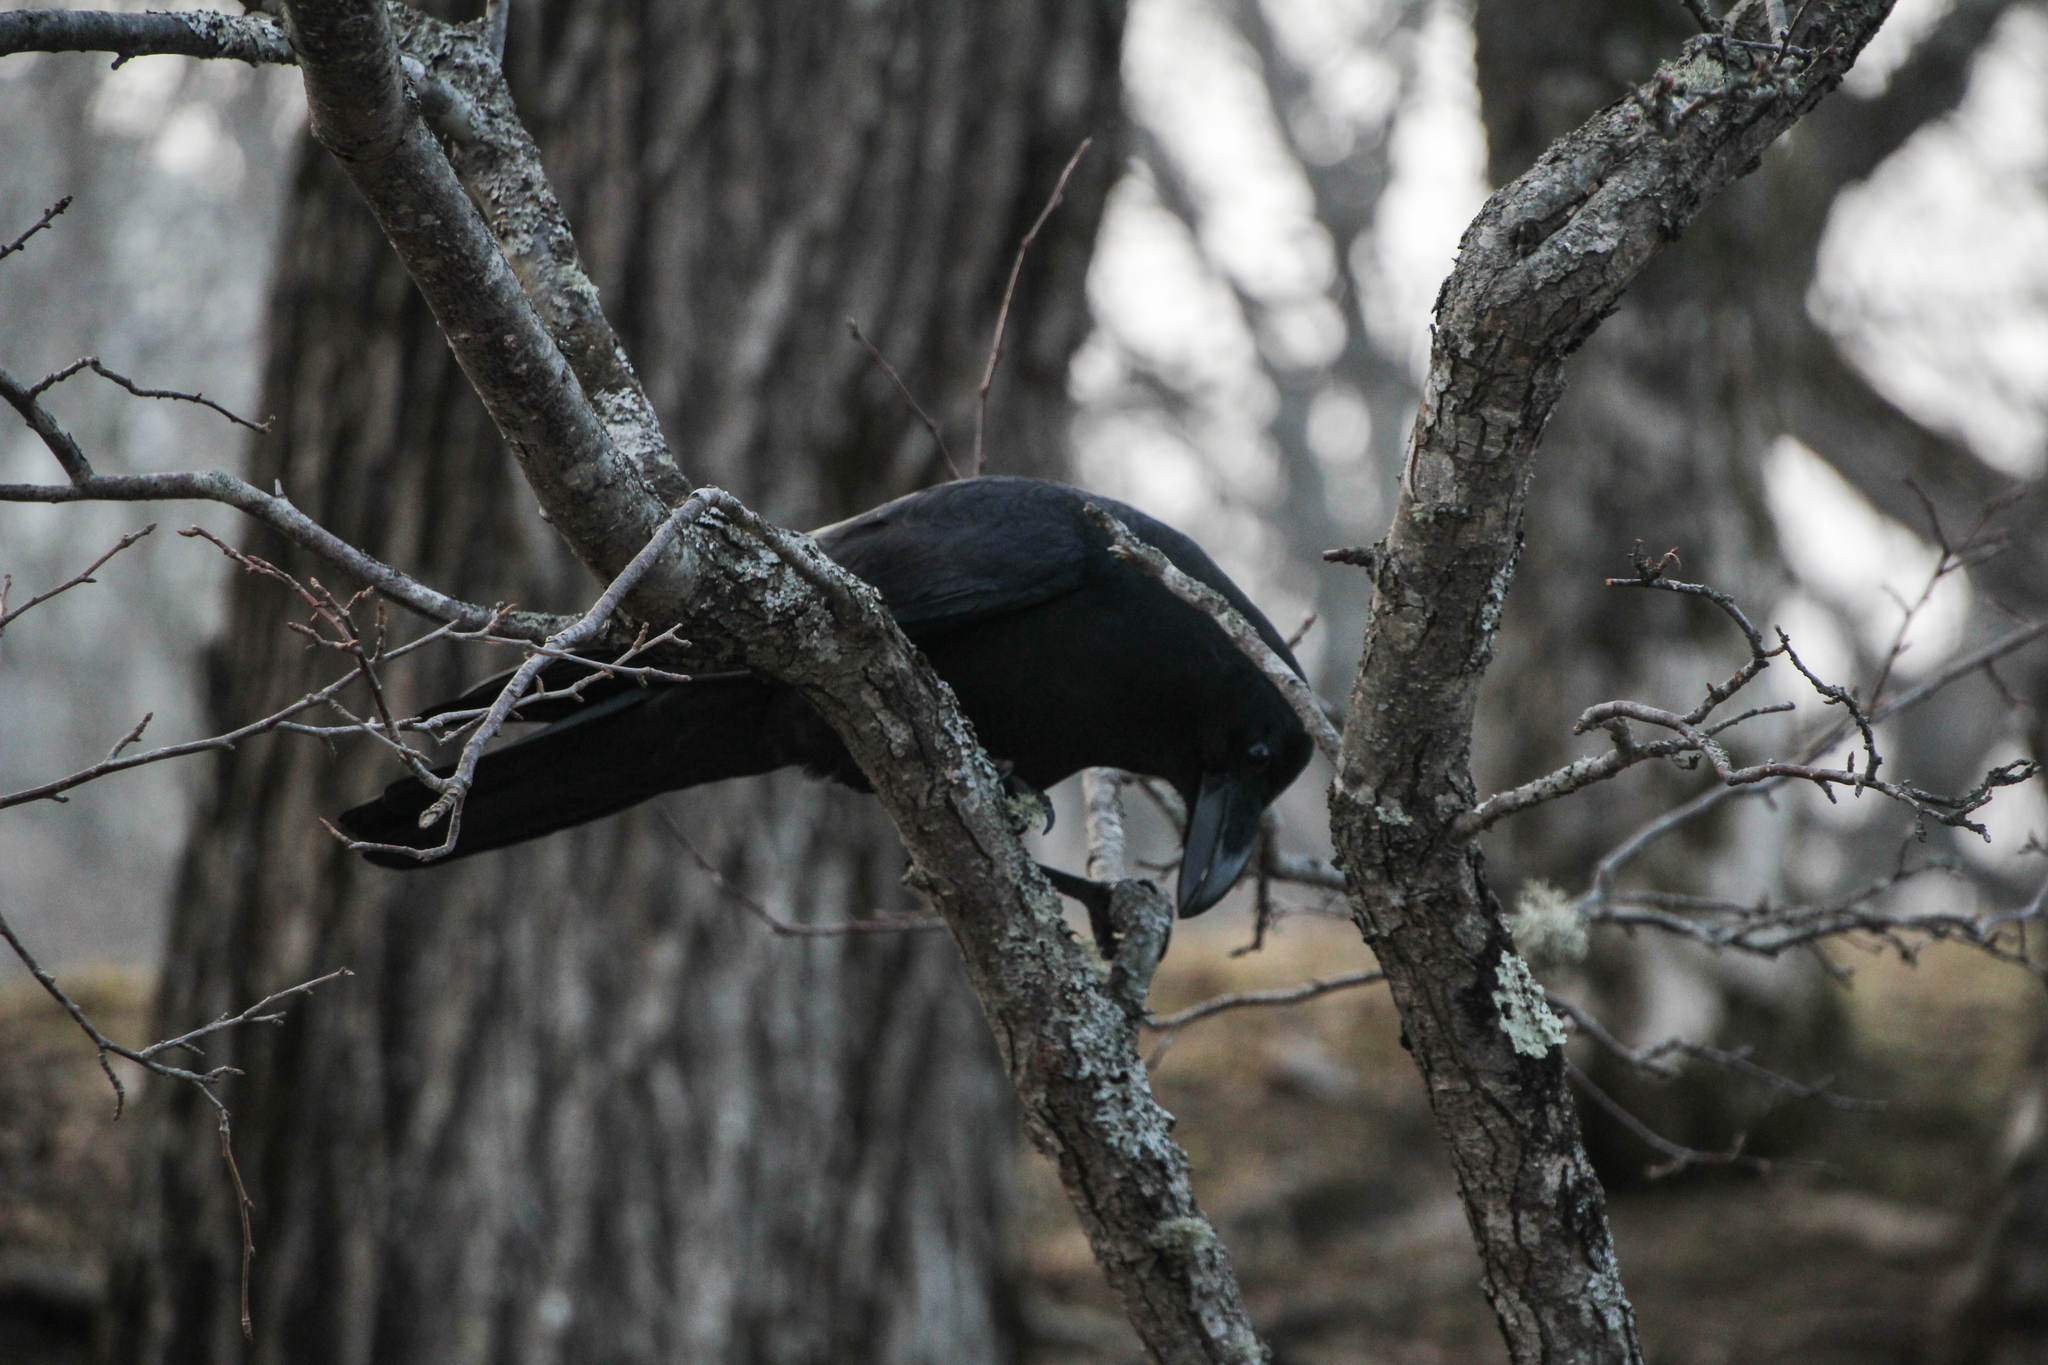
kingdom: Animalia
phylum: Chordata
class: Aves
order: Passeriformes
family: Corvidae
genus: Corvus
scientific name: Corvus macrorhynchos
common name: Large-billed crow
